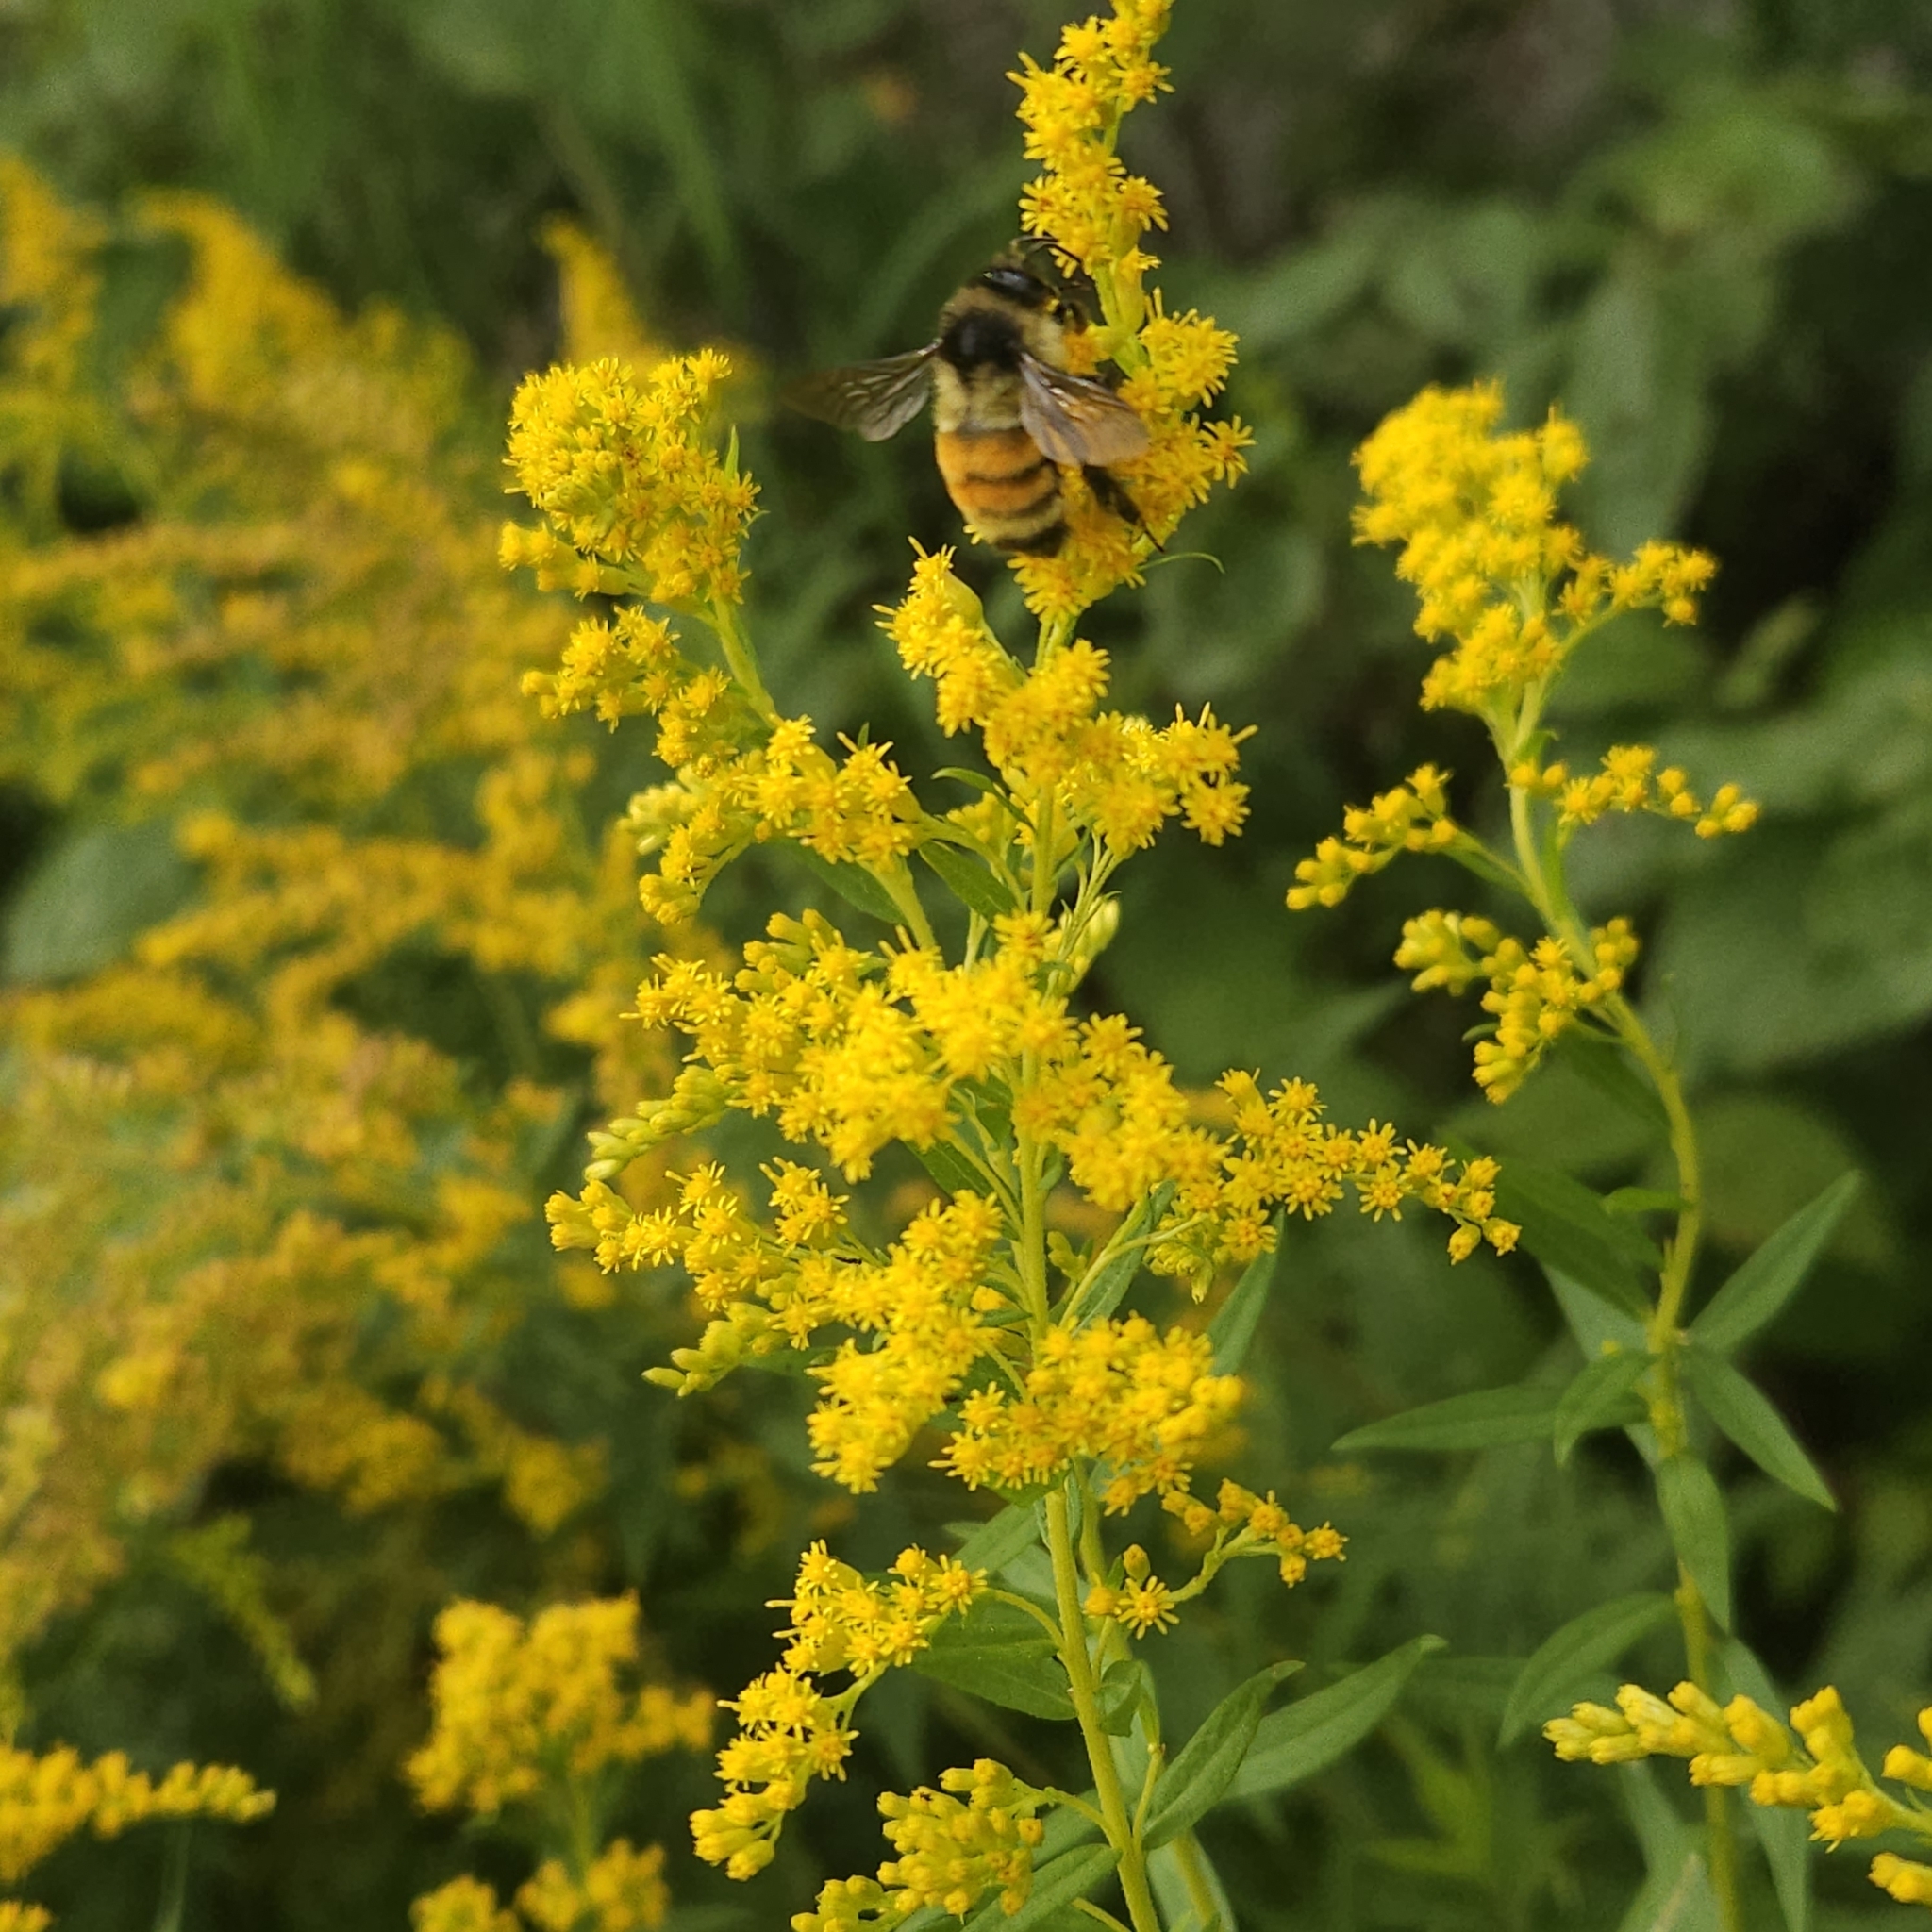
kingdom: Animalia
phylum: Arthropoda
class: Insecta
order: Hymenoptera
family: Apidae
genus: Bombus
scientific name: Bombus ternarius
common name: Tri-colored bumble bee
